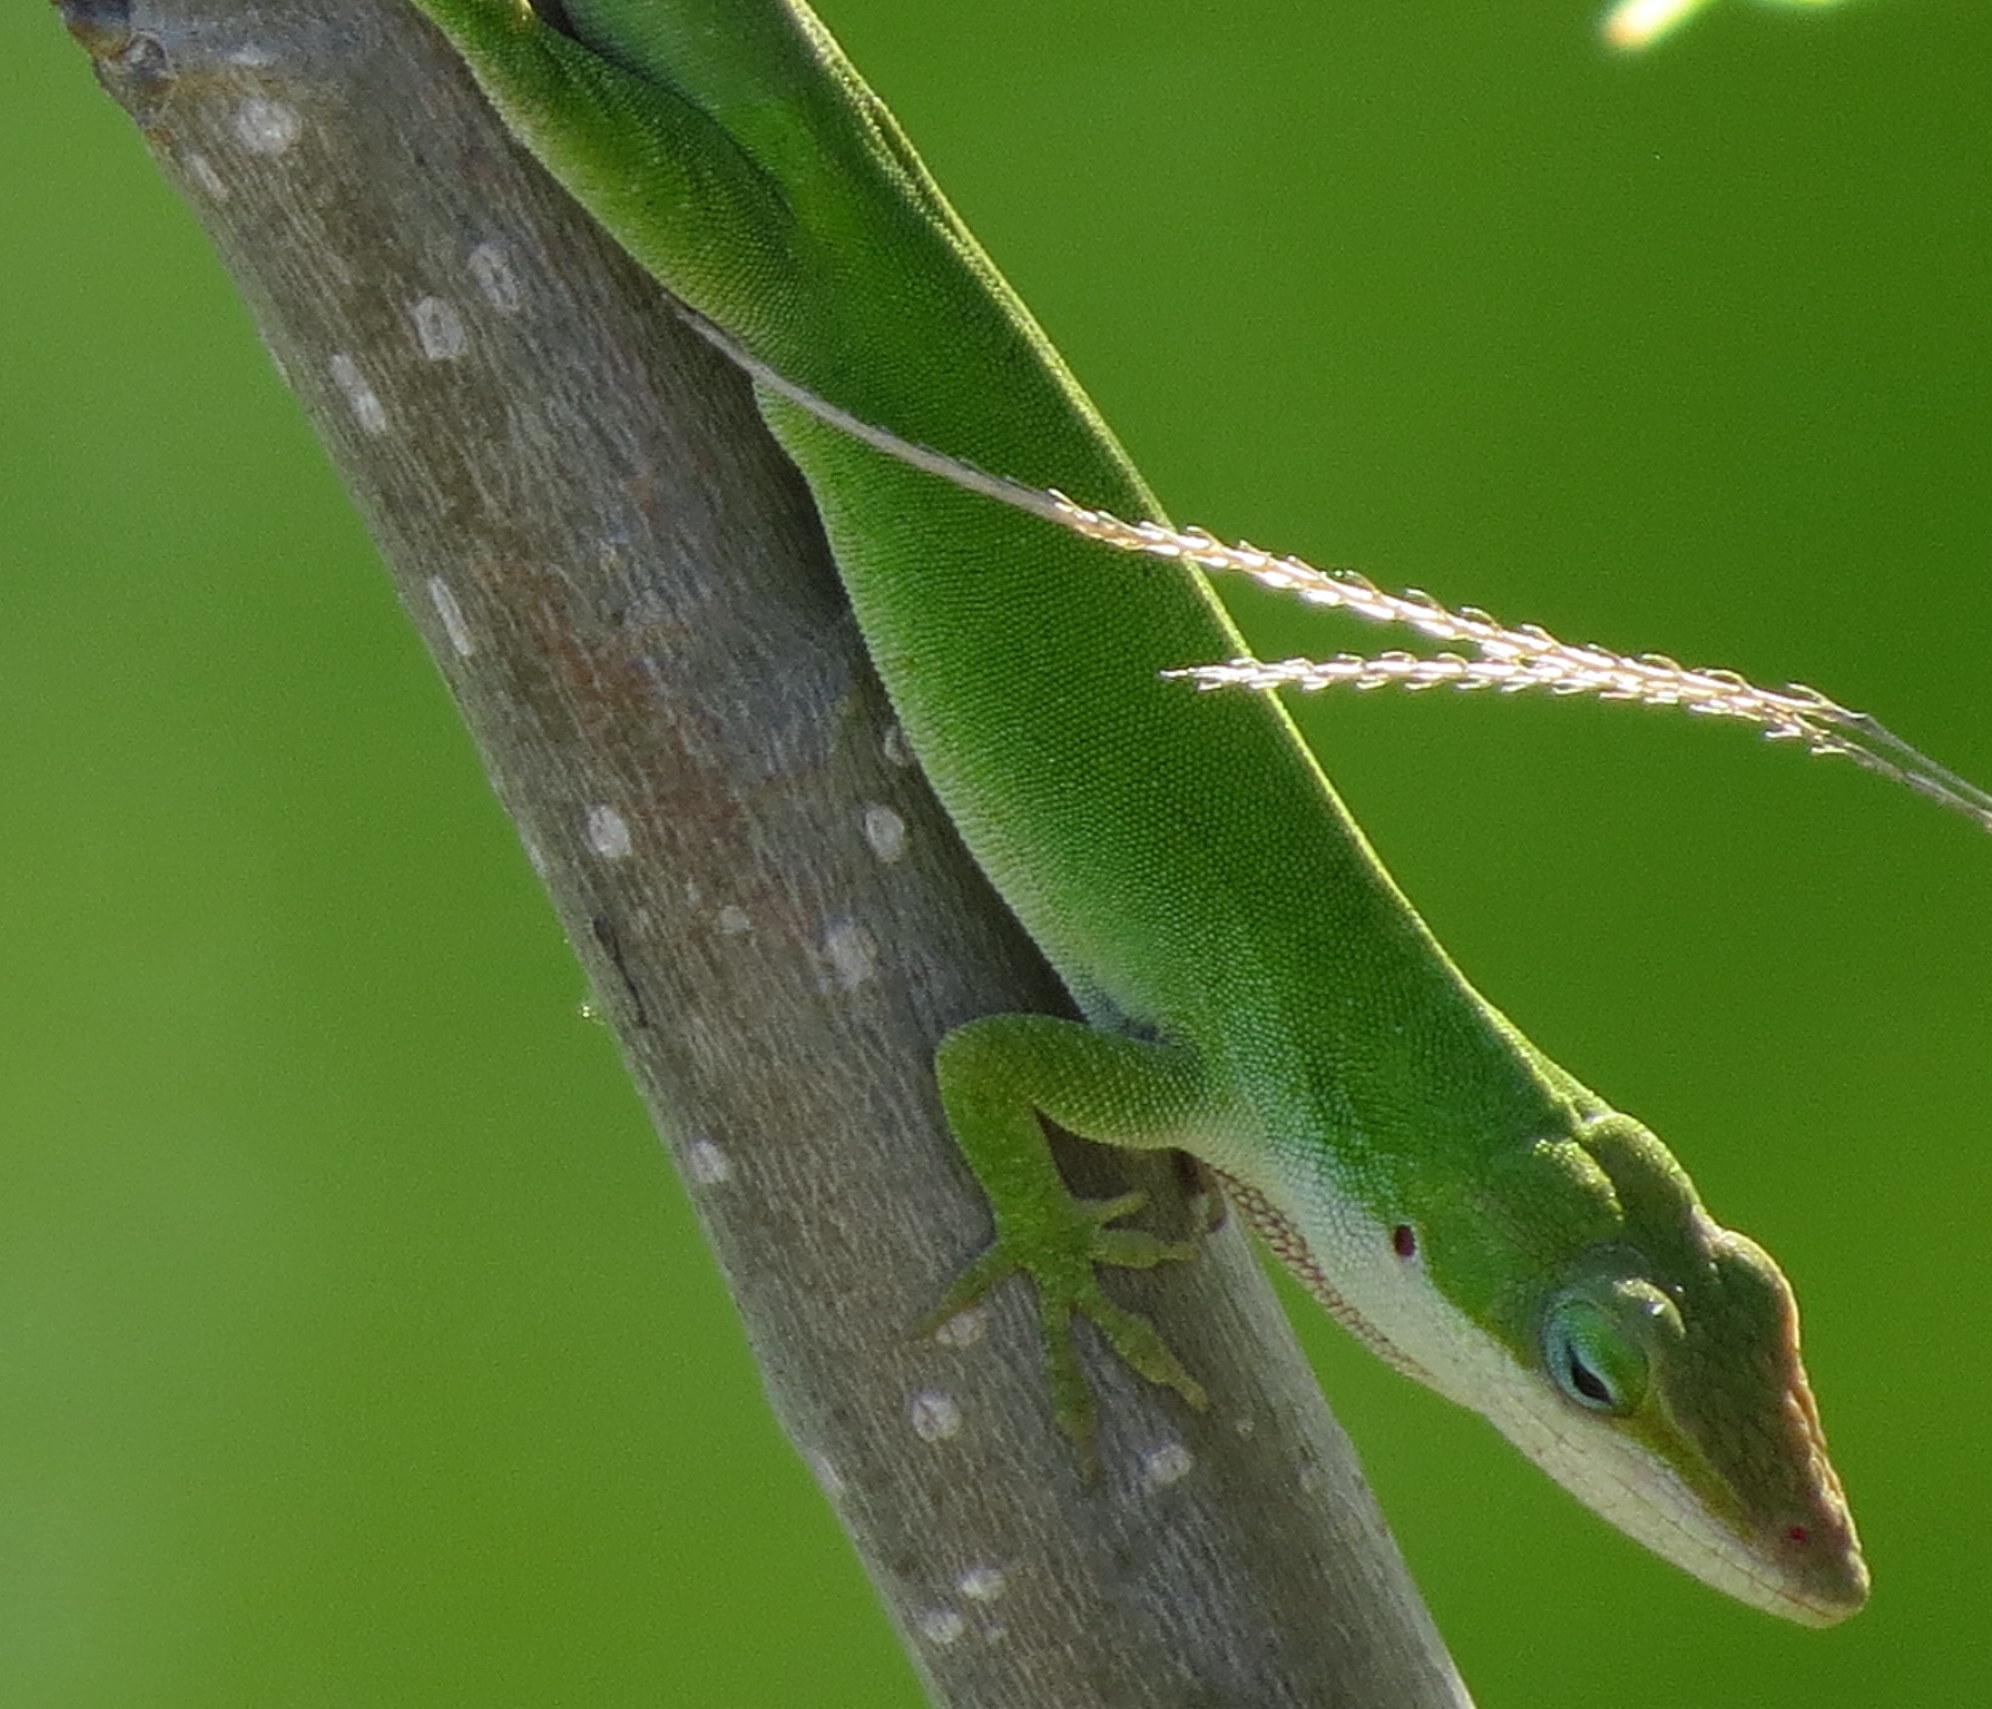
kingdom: Animalia
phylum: Chordata
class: Squamata
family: Dactyloidae
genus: Anolis
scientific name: Anolis carolinensis
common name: Green anole
